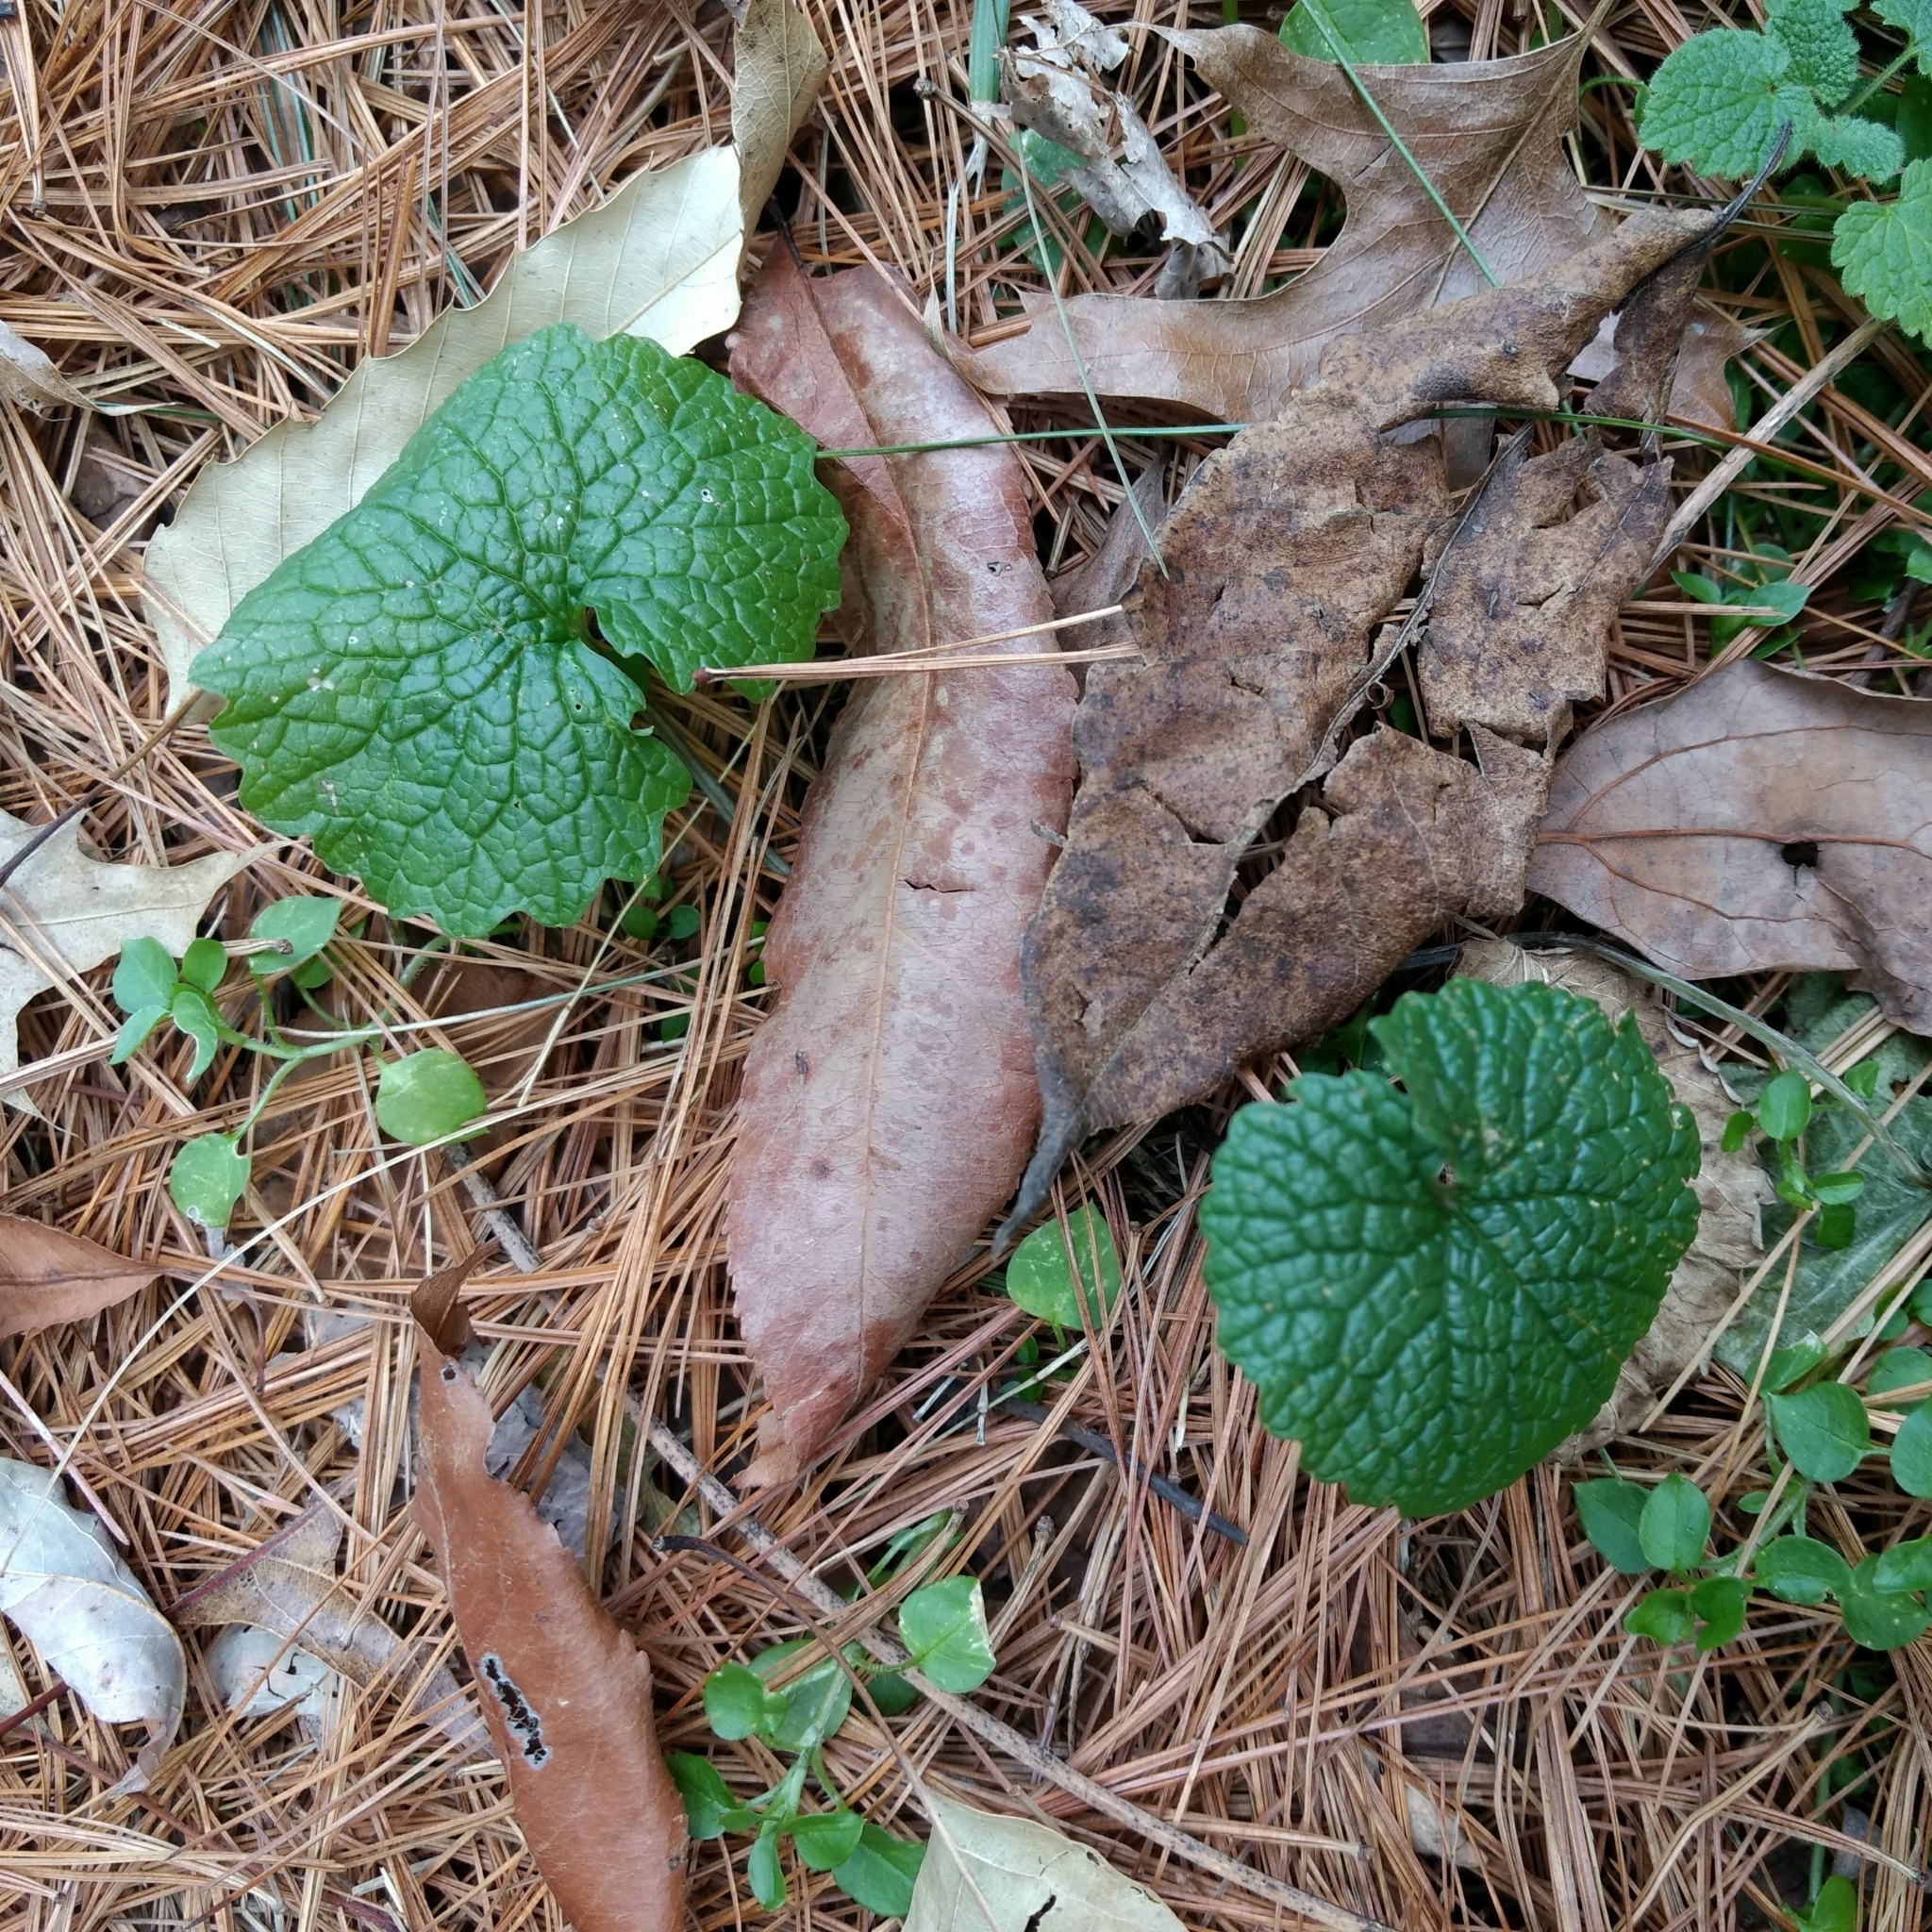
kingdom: Plantae
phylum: Tracheophyta
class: Magnoliopsida
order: Brassicales
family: Brassicaceae
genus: Alliaria
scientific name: Alliaria petiolata
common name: Garlic mustard
